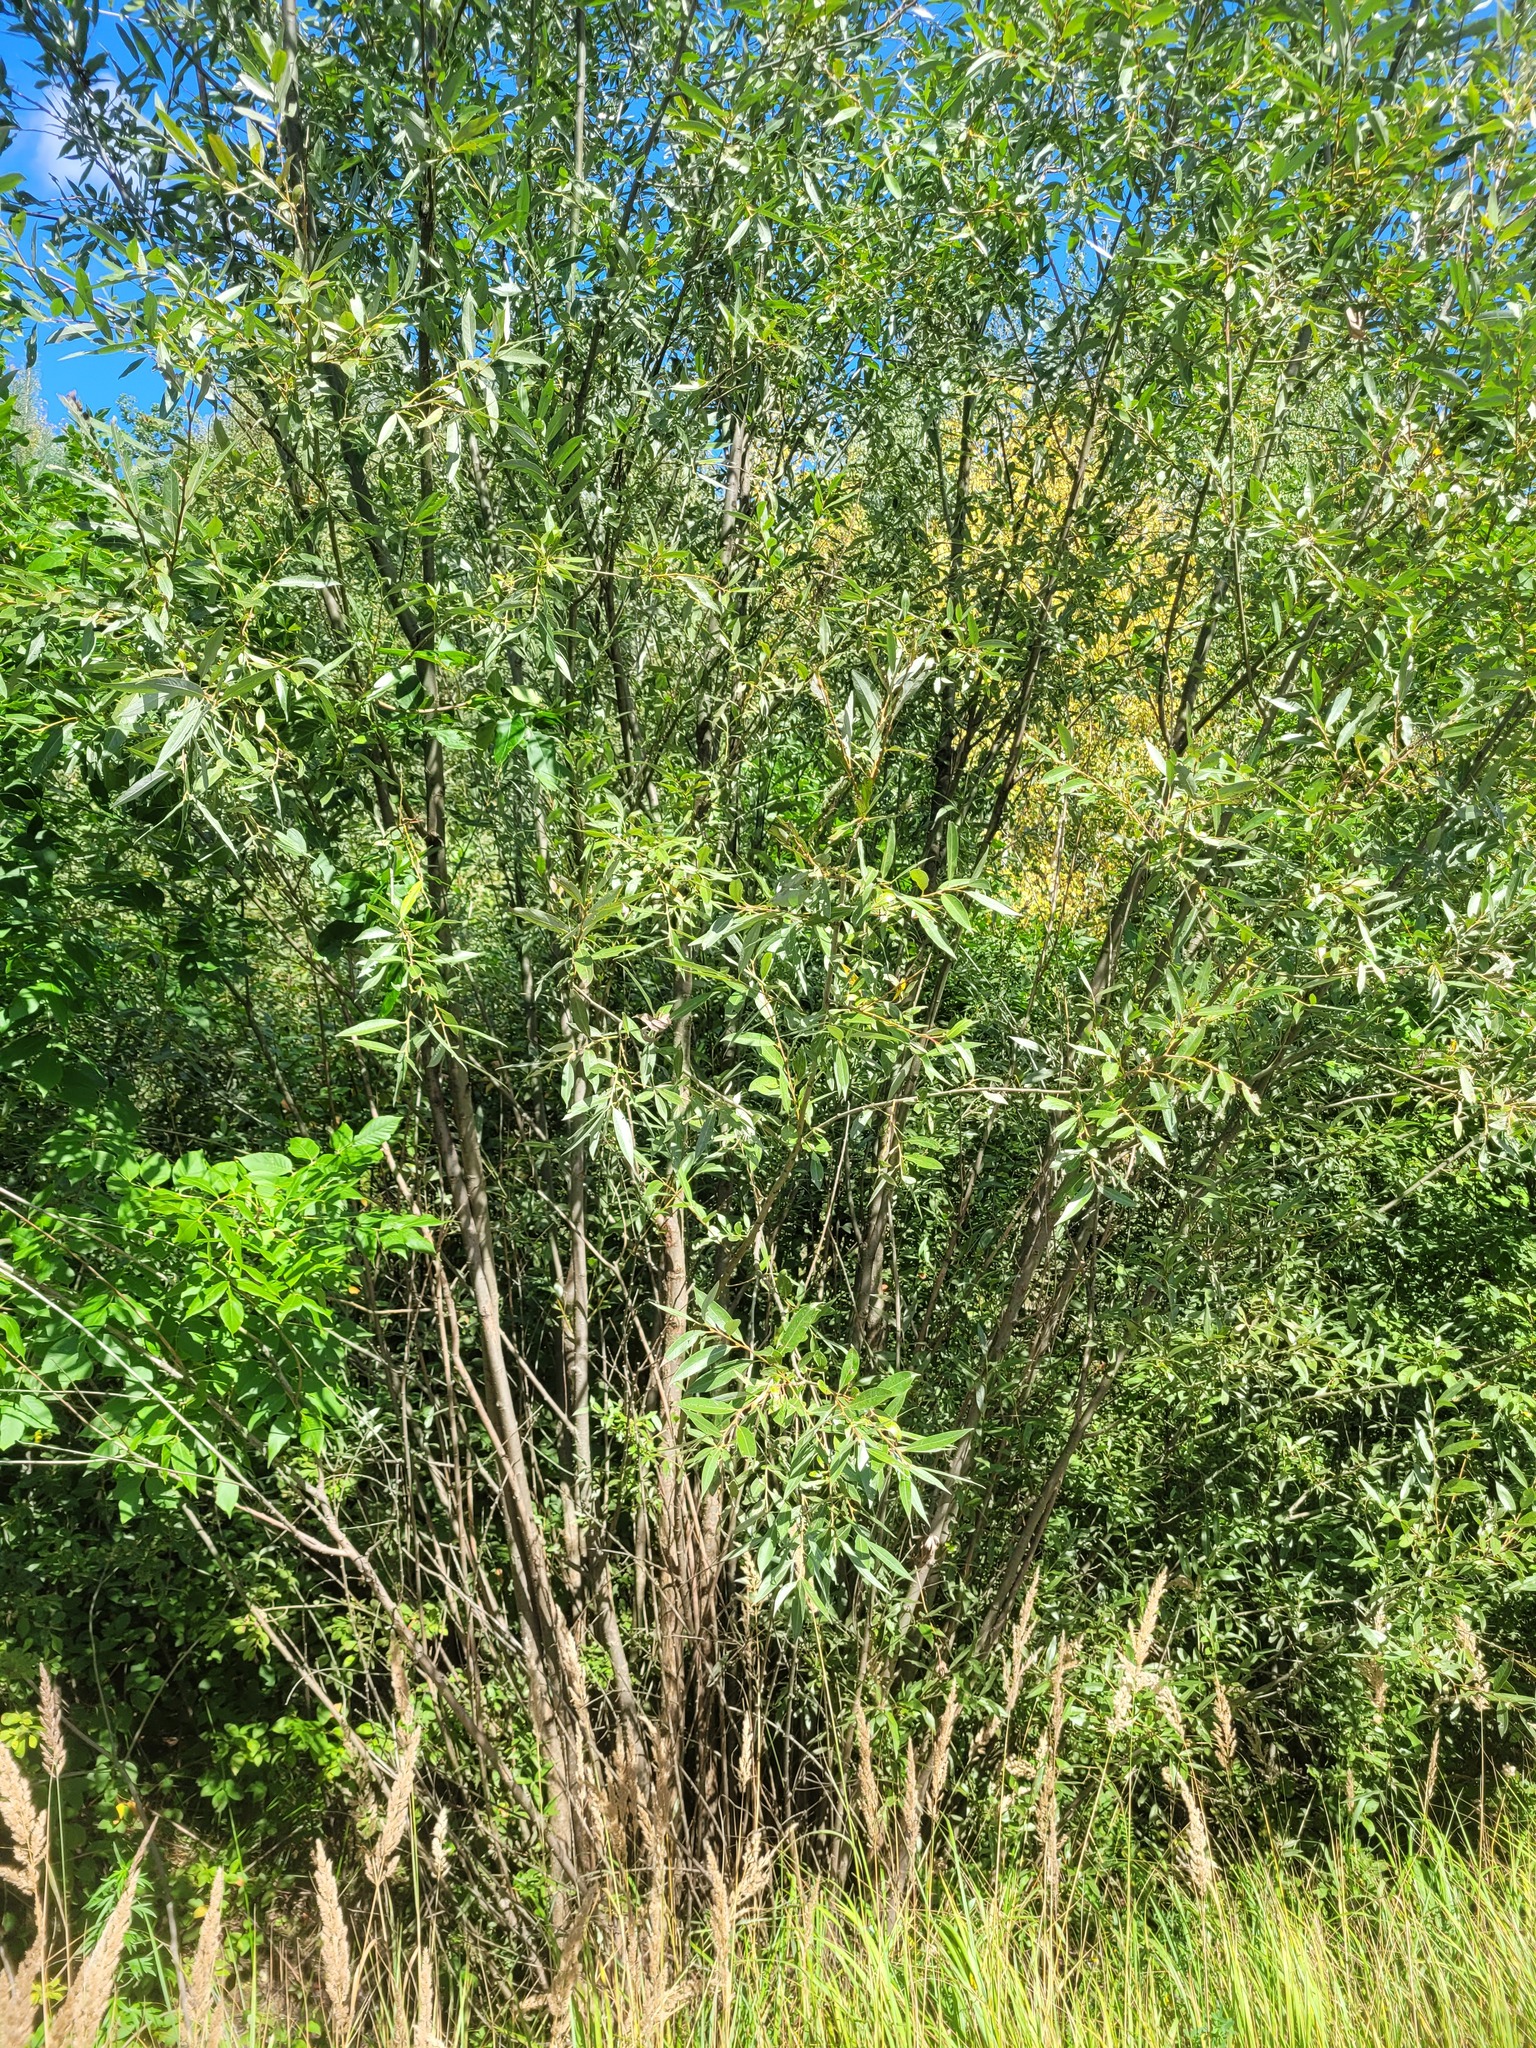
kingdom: Plantae
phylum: Tracheophyta
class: Magnoliopsida
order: Malpighiales
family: Salicaceae
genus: Salix
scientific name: Salix alba
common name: White willow
